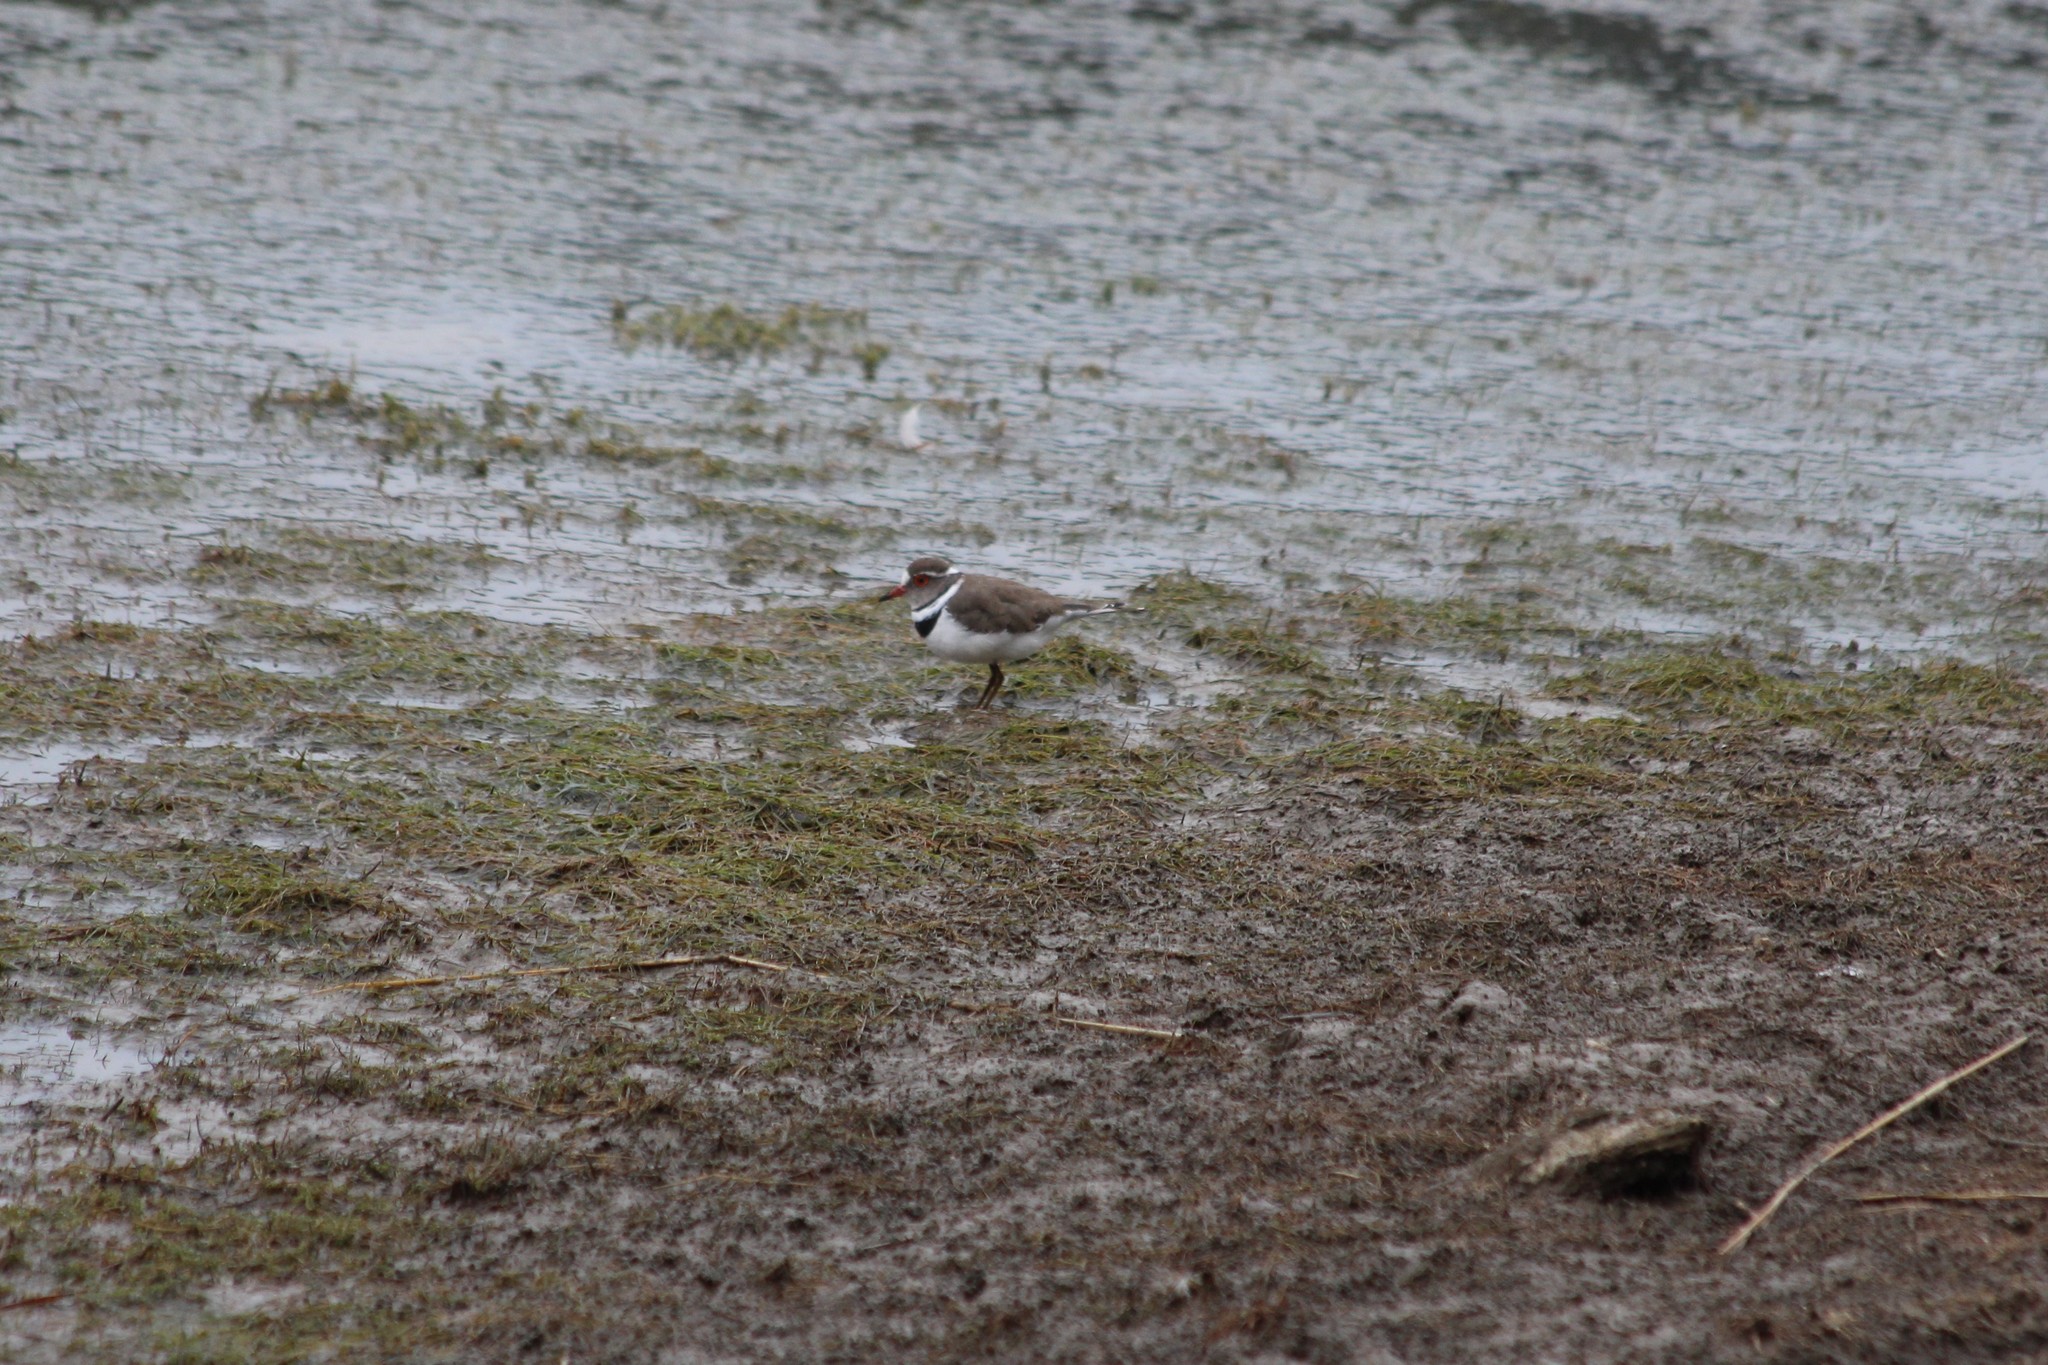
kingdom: Animalia
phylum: Chordata
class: Aves
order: Charadriiformes
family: Charadriidae
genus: Charadrius
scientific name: Charadrius tricollaris
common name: Three-banded plover
